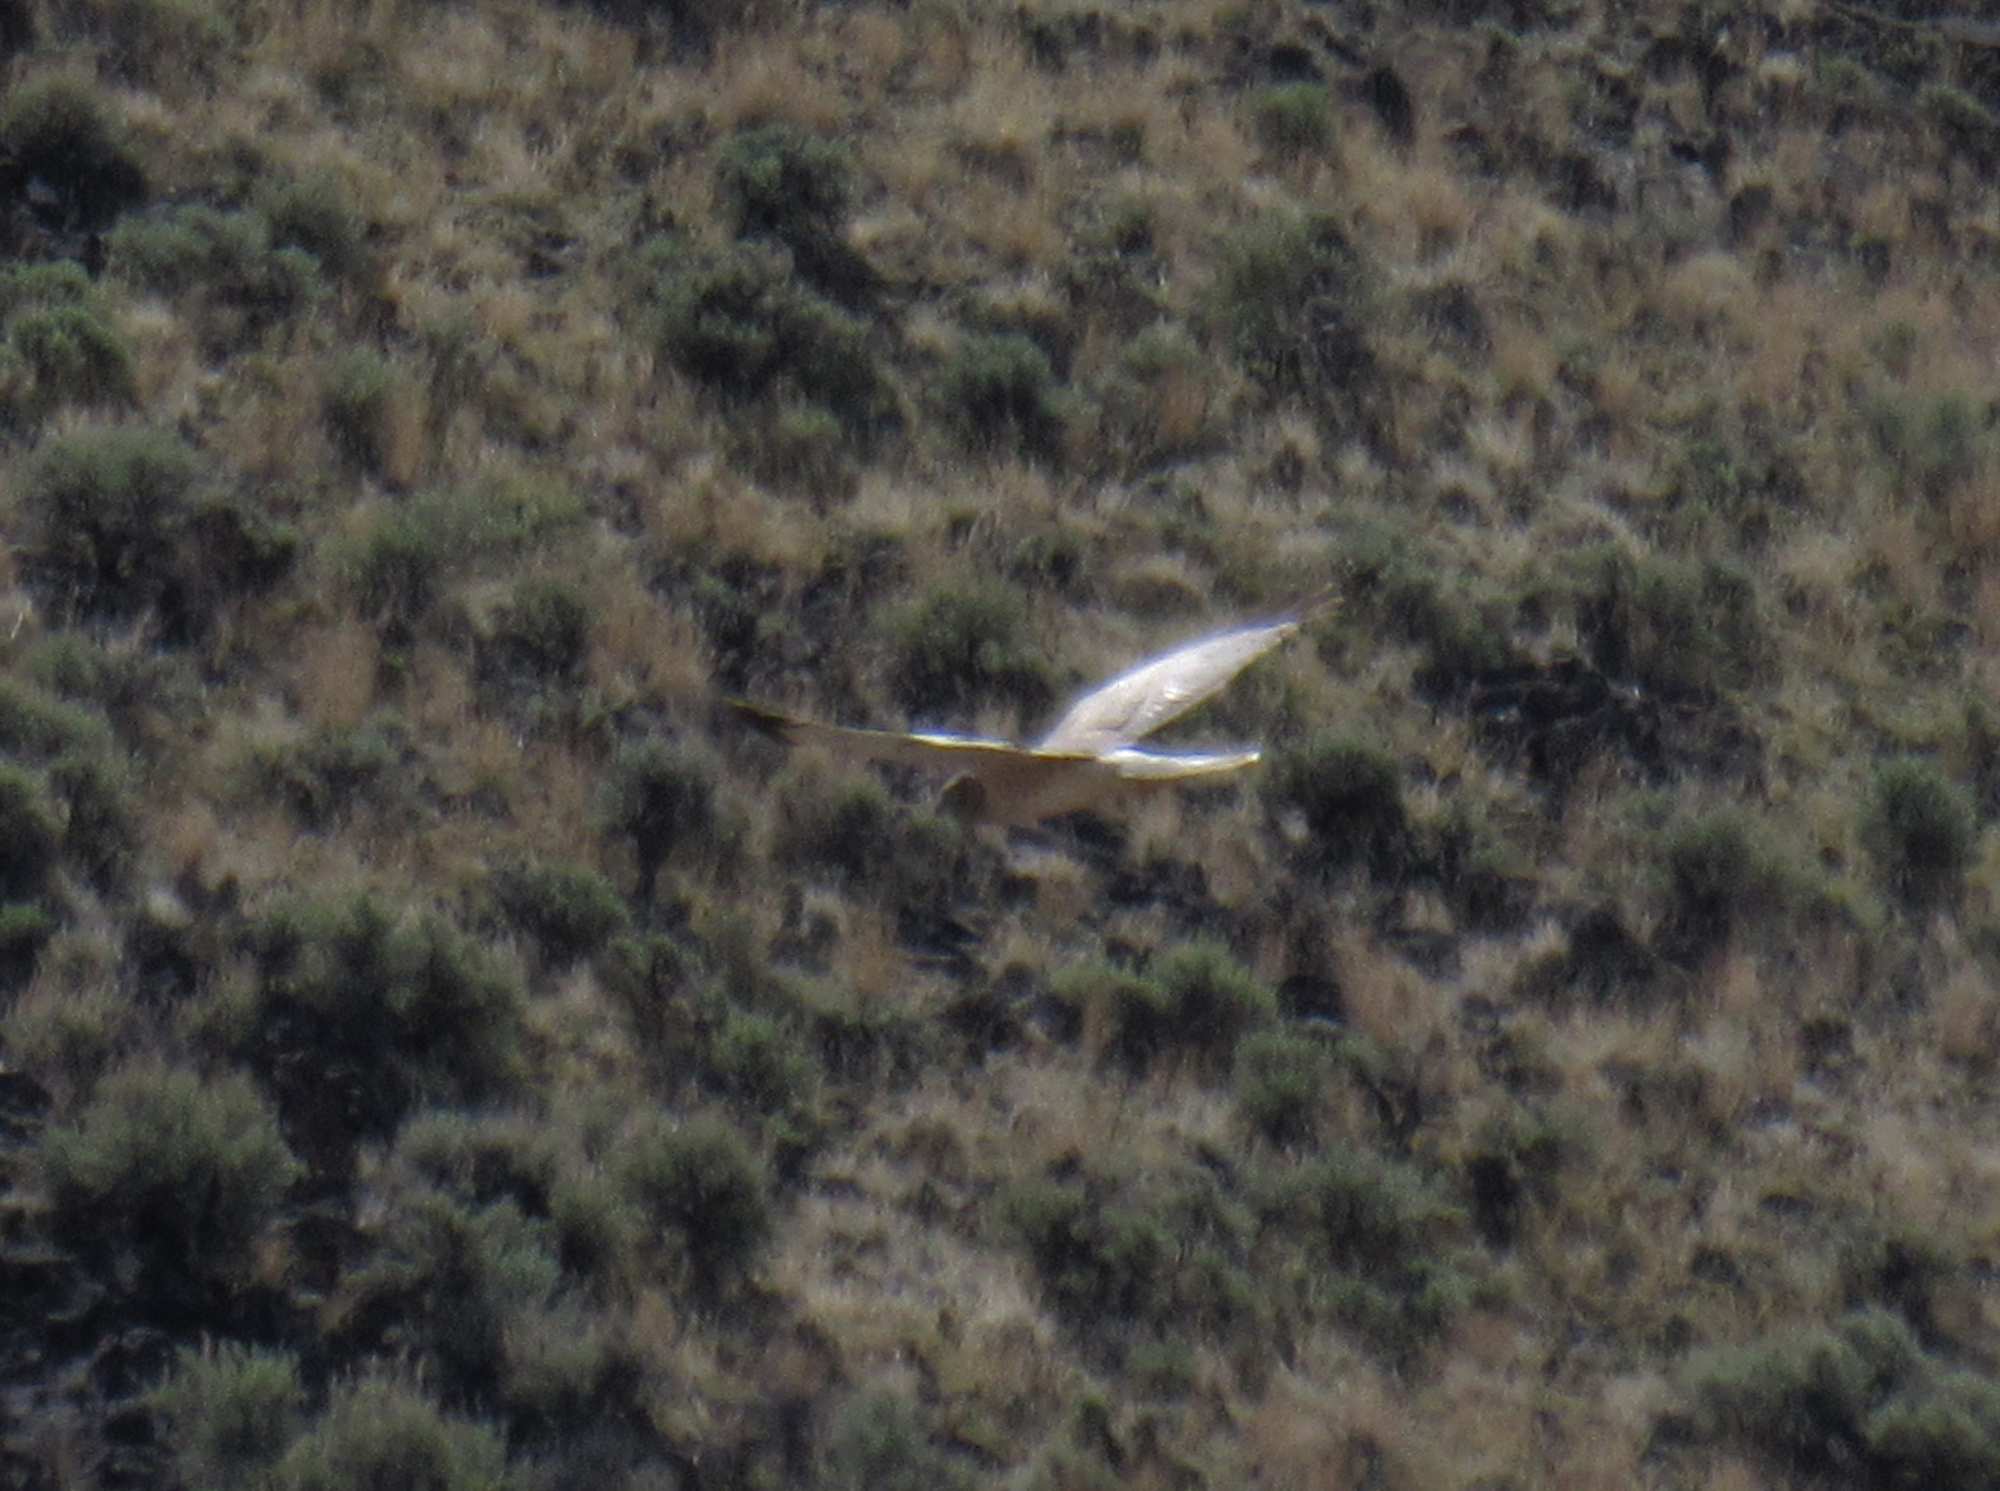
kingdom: Animalia
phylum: Chordata
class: Aves
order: Accipitriformes
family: Accipitridae
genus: Circus
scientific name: Circus cyaneus
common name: Hen harrier
